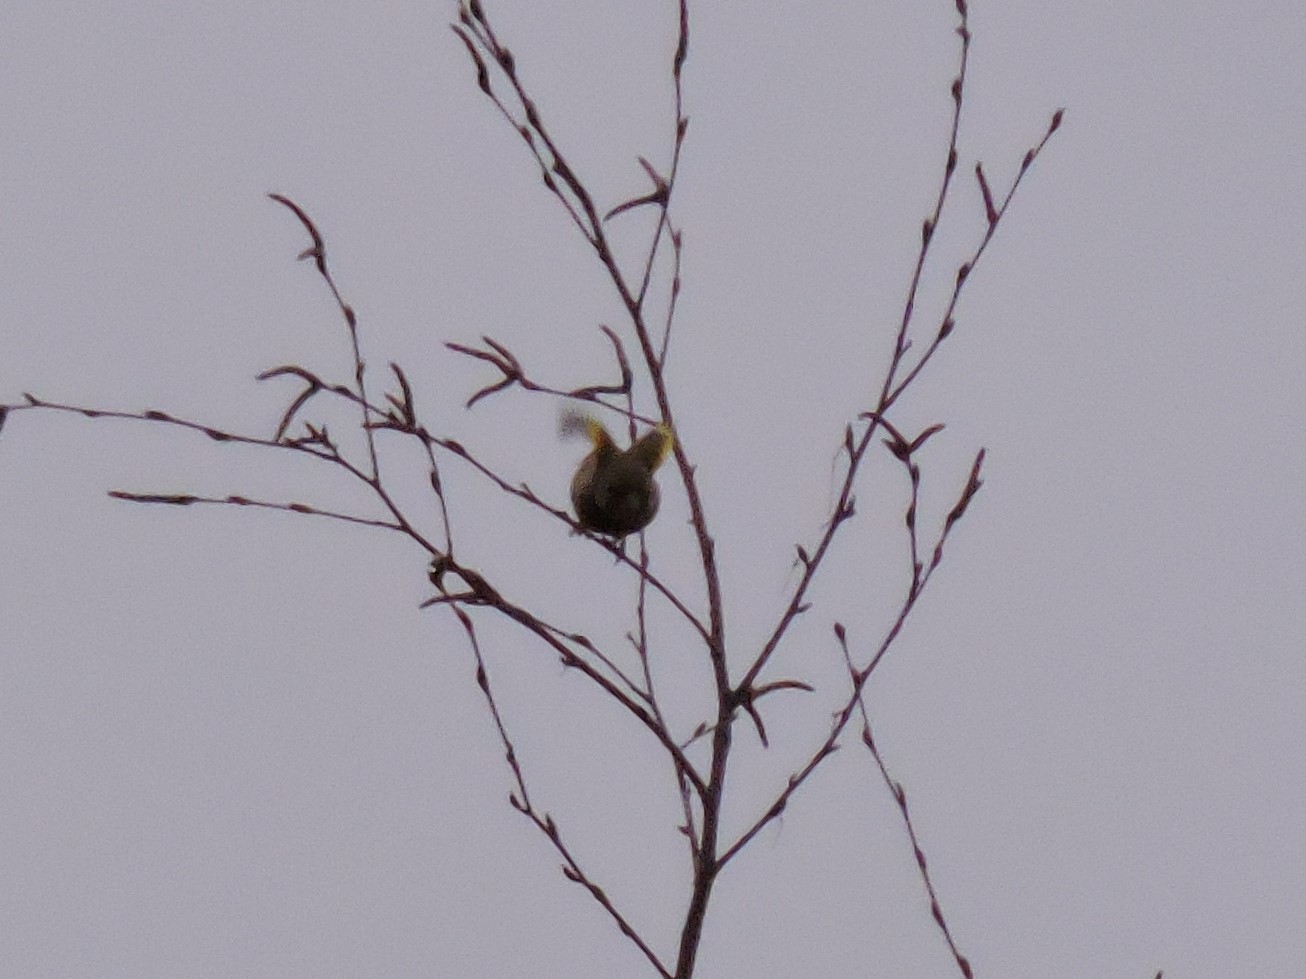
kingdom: Plantae
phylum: Tracheophyta
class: Liliopsida
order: Poales
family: Poaceae
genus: Chloris
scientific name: Chloris chloris
